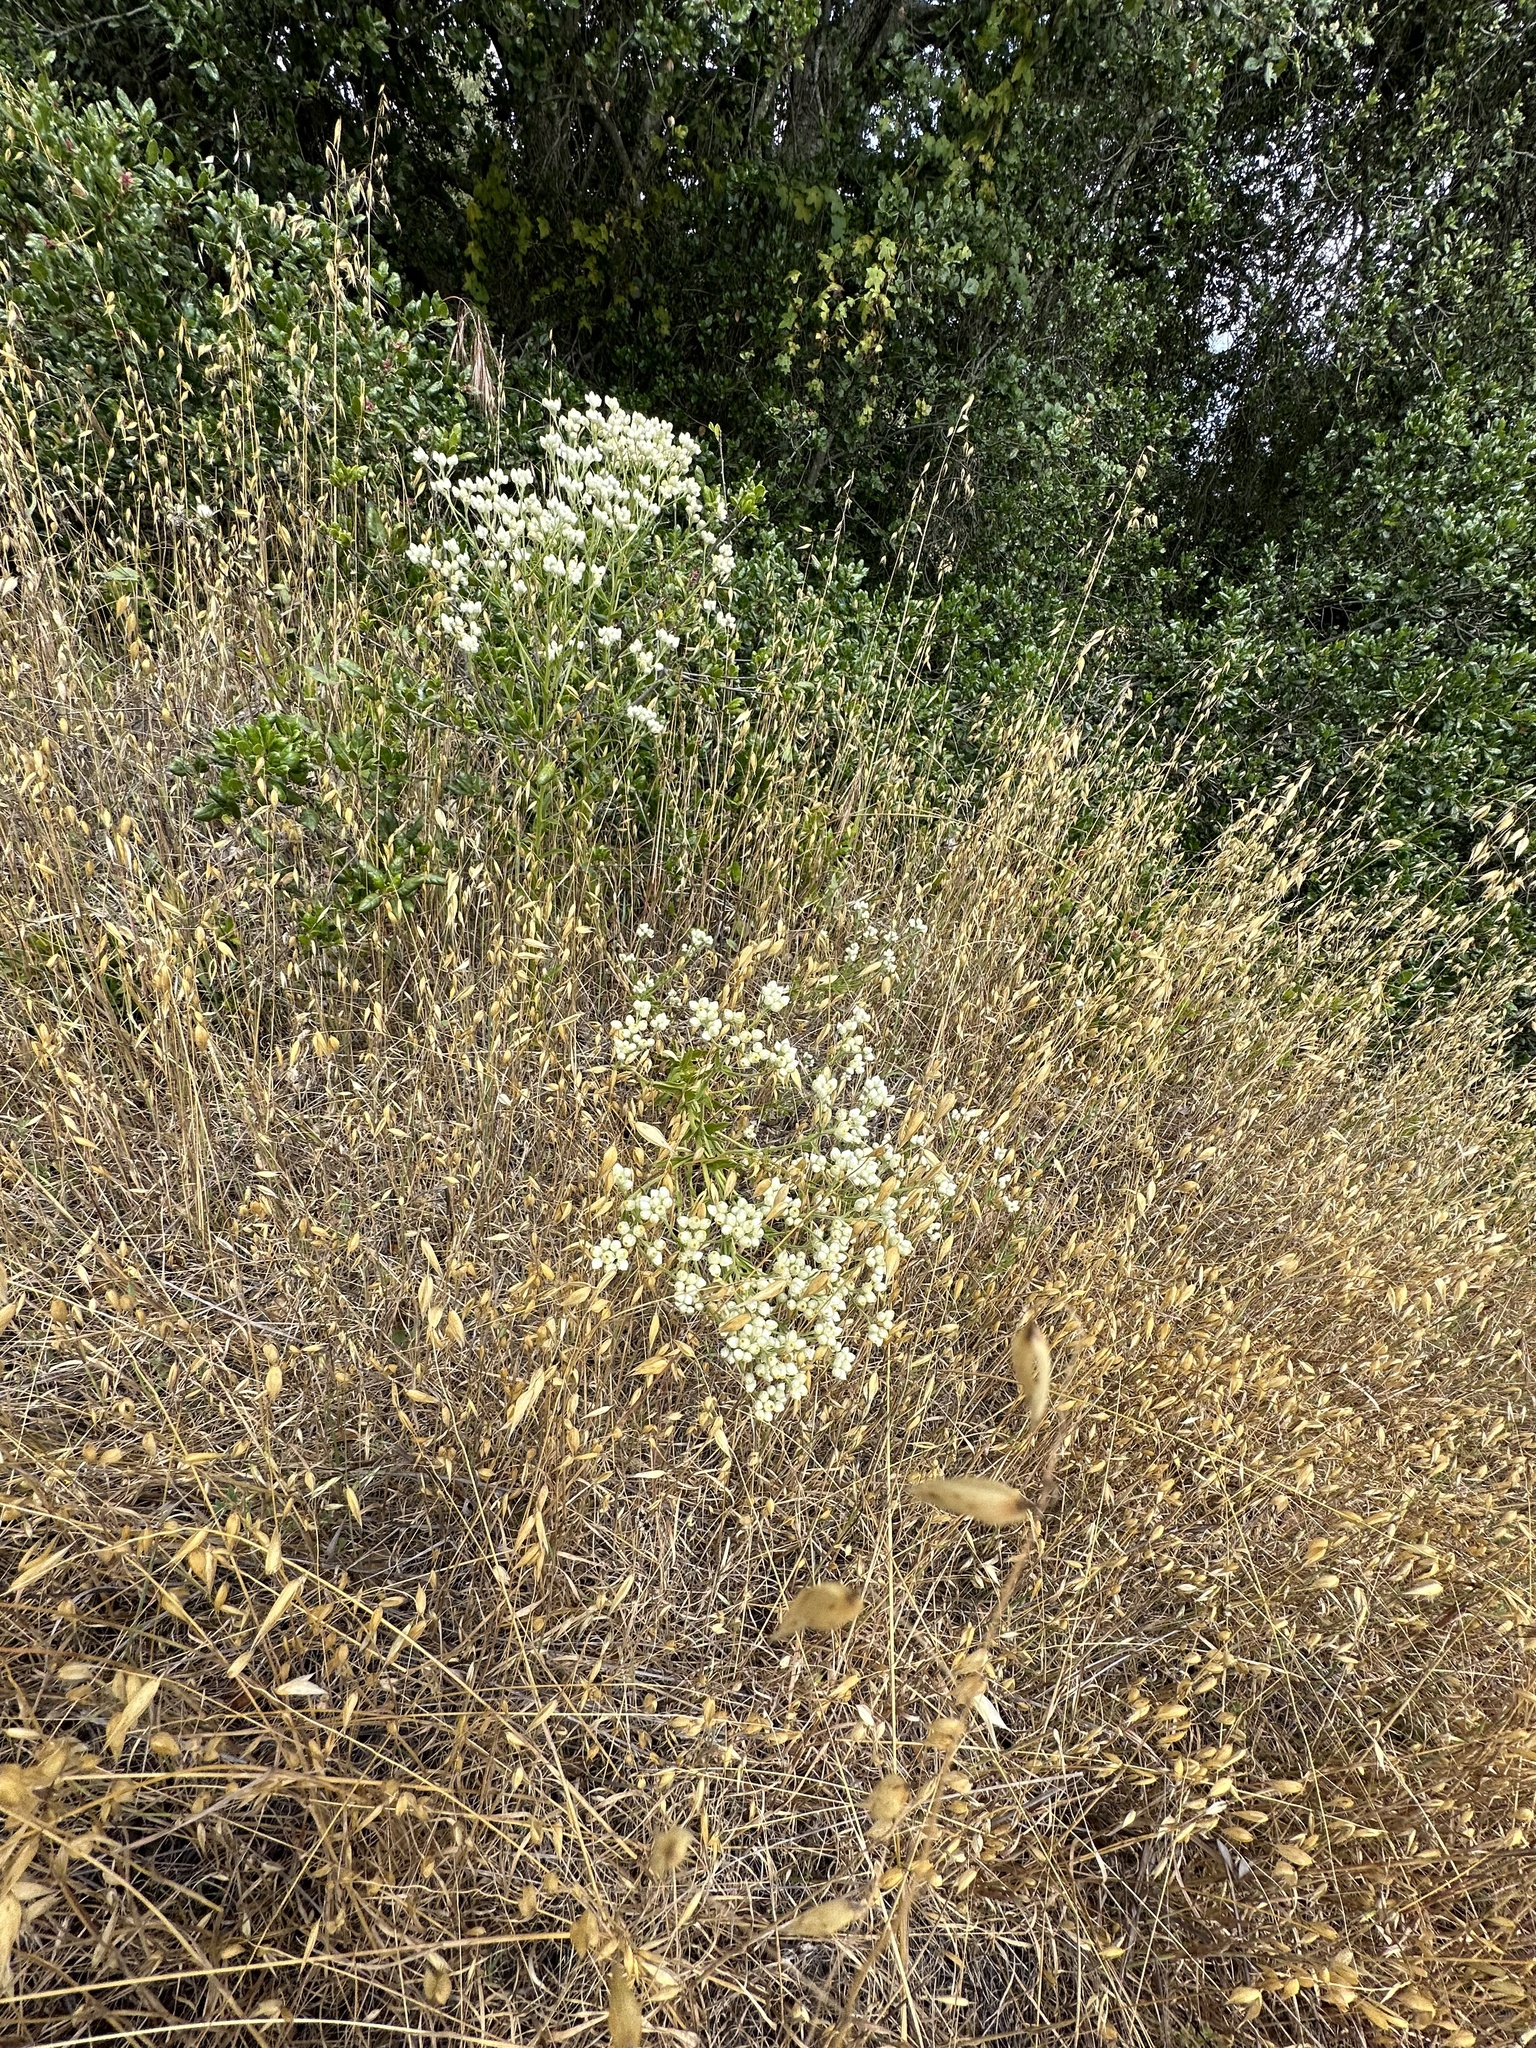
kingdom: Plantae
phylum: Tracheophyta
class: Magnoliopsida
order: Asterales
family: Asteraceae
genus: Pseudognaphalium
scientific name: Pseudognaphalium californicum
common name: California rabbit-tobacco
